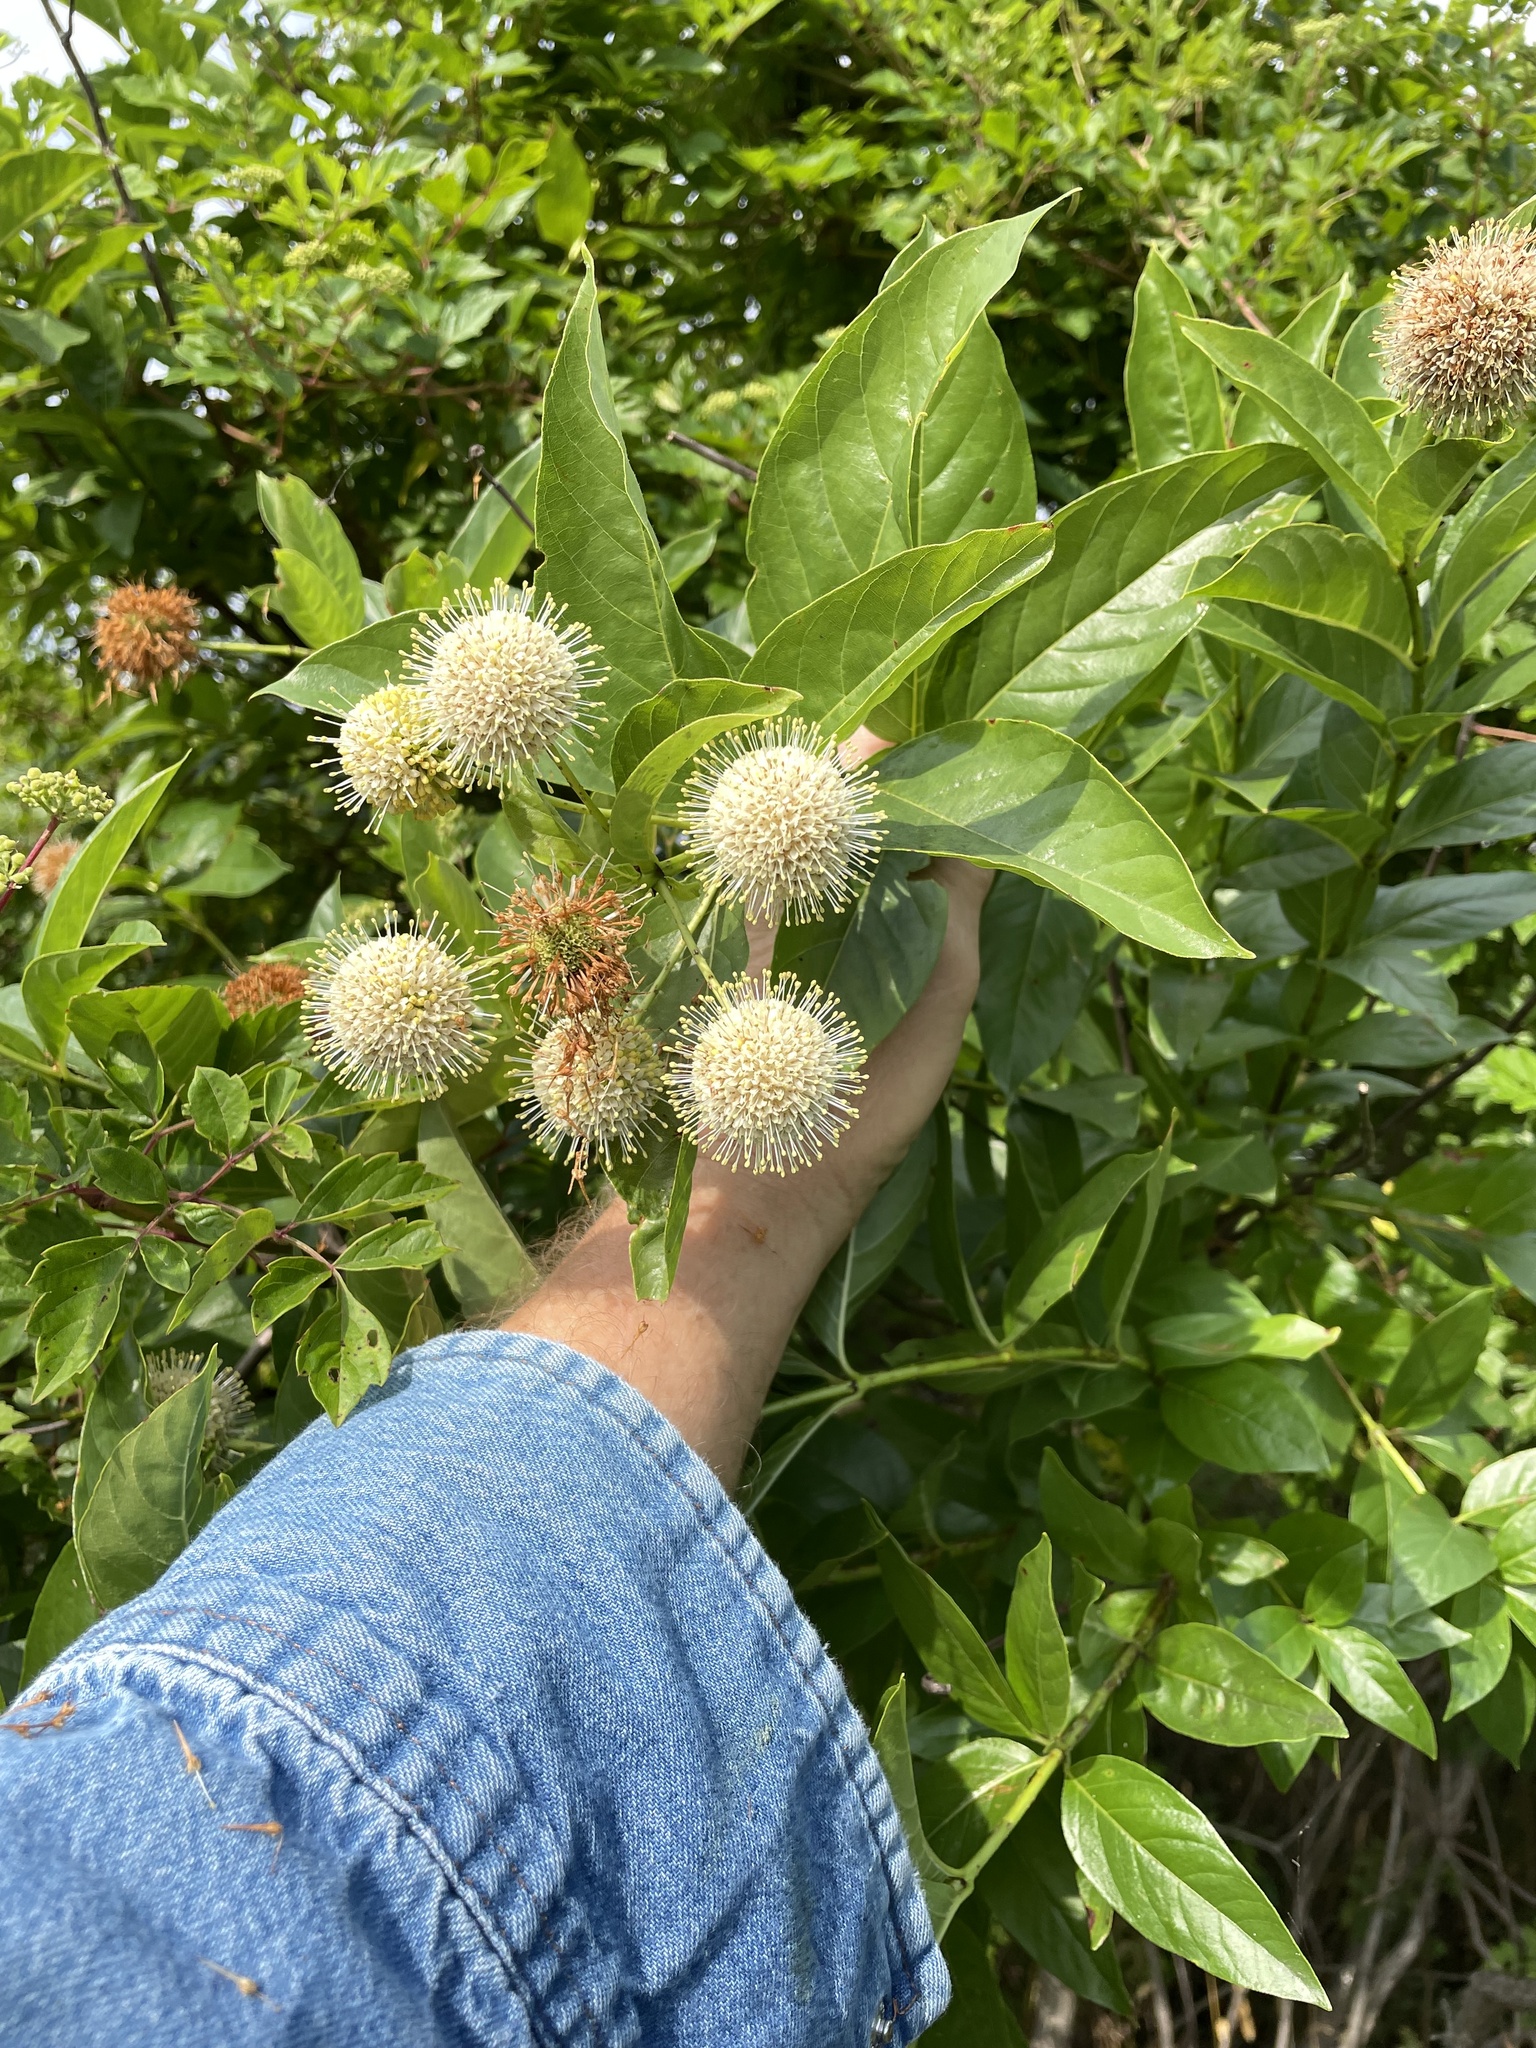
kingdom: Plantae
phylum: Tracheophyta
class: Magnoliopsida
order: Gentianales
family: Rubiaceae
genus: Cephalanthus
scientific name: Cephalanthus occidentalis
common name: Button-willow
